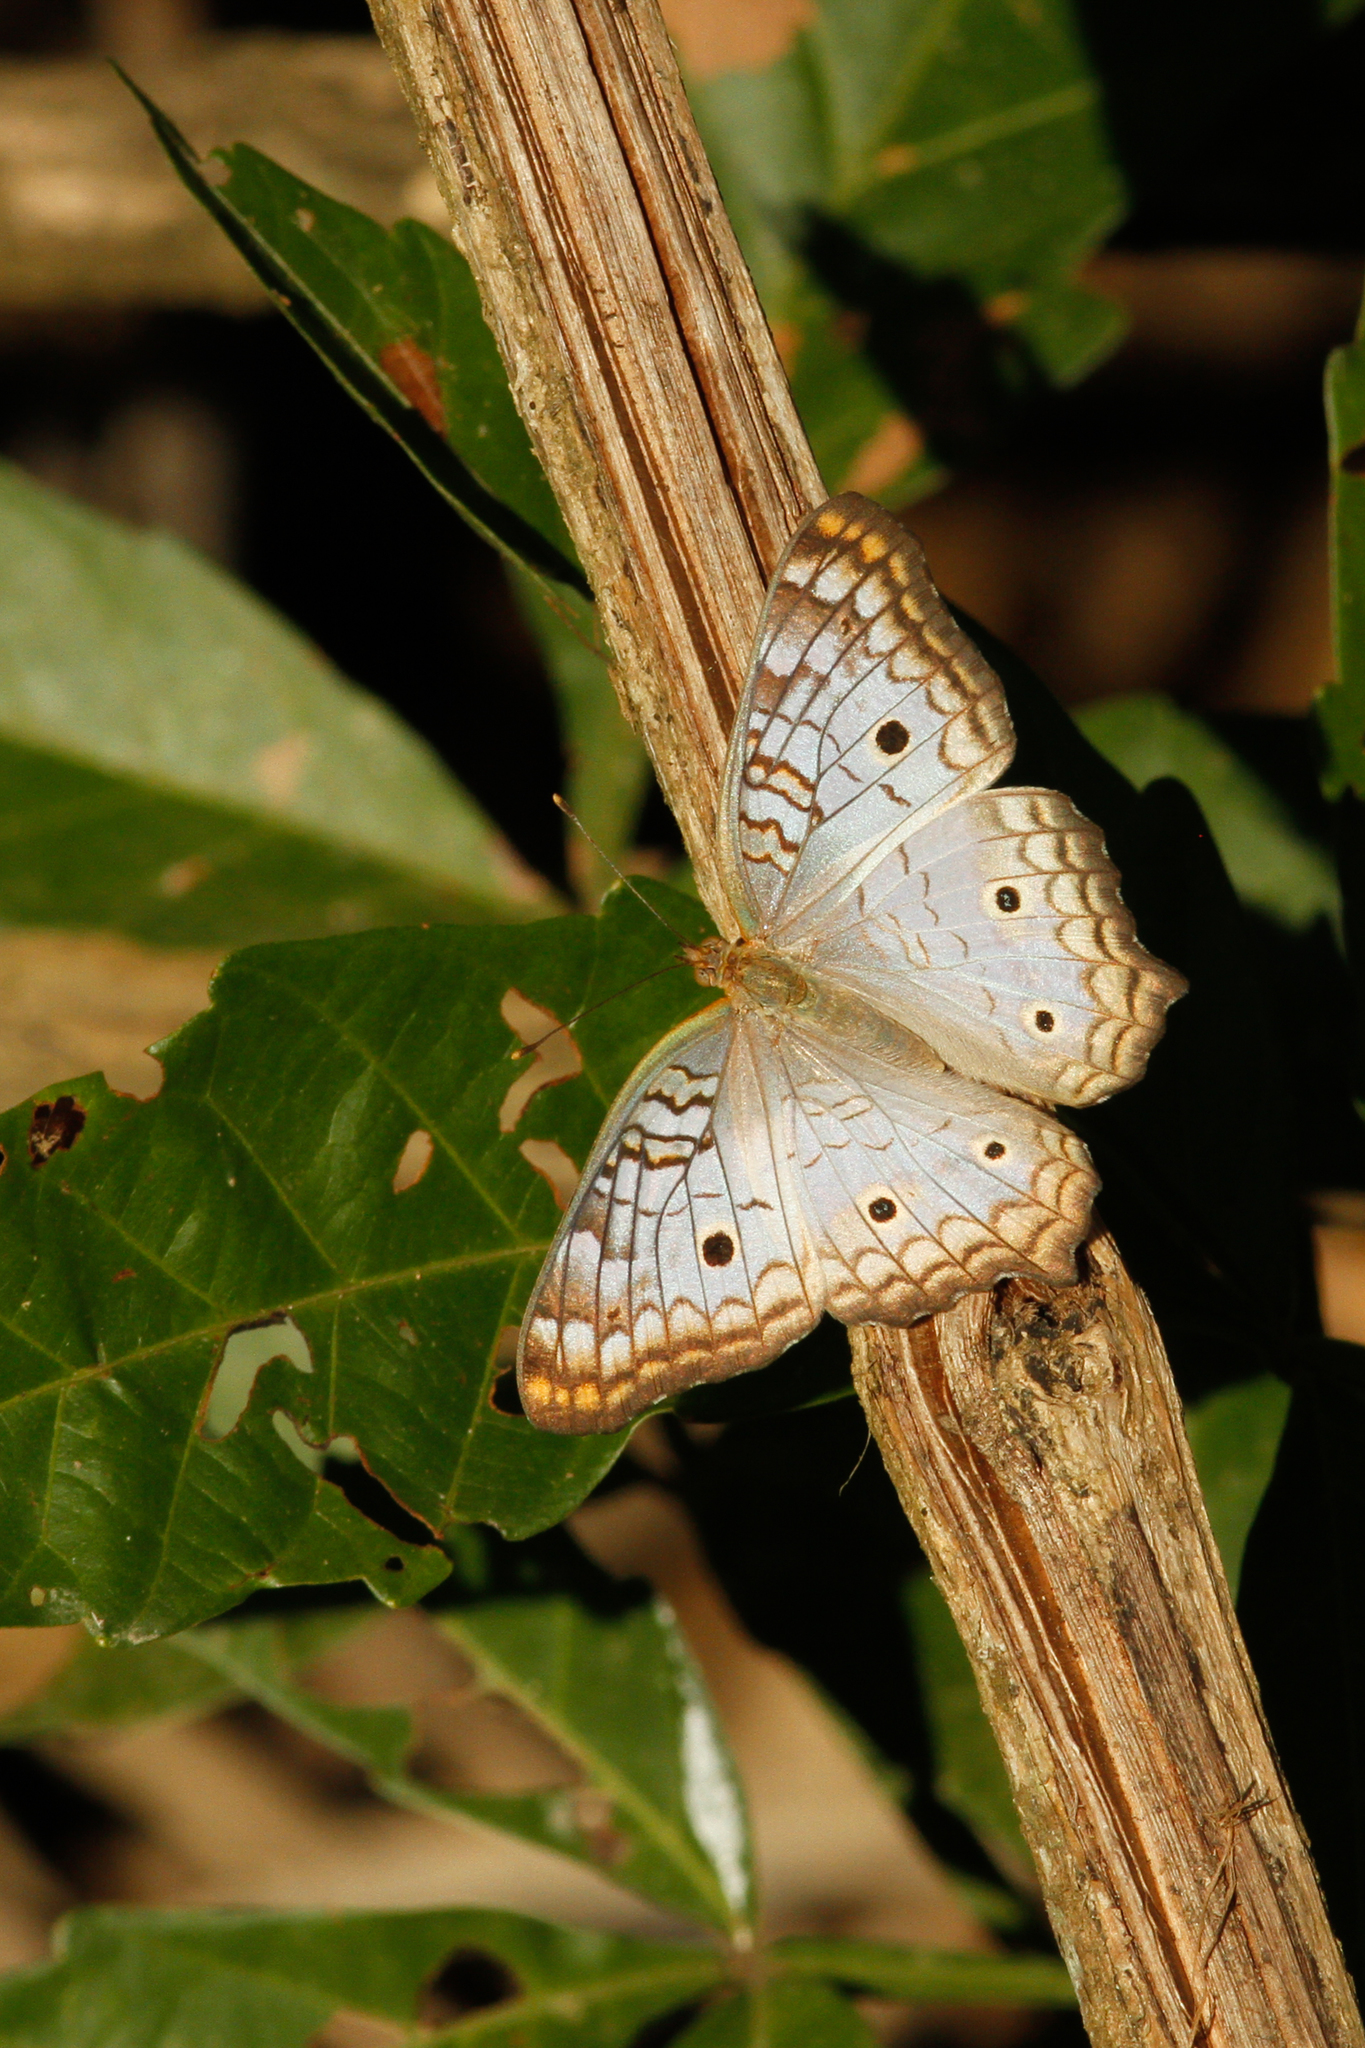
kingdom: Animalia
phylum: Arthropoda
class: Insecta
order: Lepidoptera
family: Nymphalidae
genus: Anartia
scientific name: Anartia jatrophae
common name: White peacock
